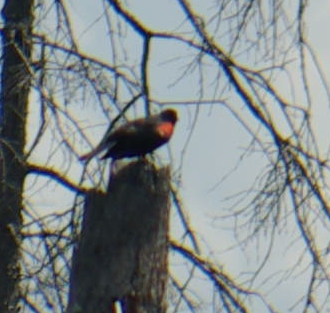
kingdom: Animalia
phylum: Chordata
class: Aves
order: Passeriformes
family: Icteridae
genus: Agelaius
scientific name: Agelaius phoeniceus
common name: Red-winged blackbird
